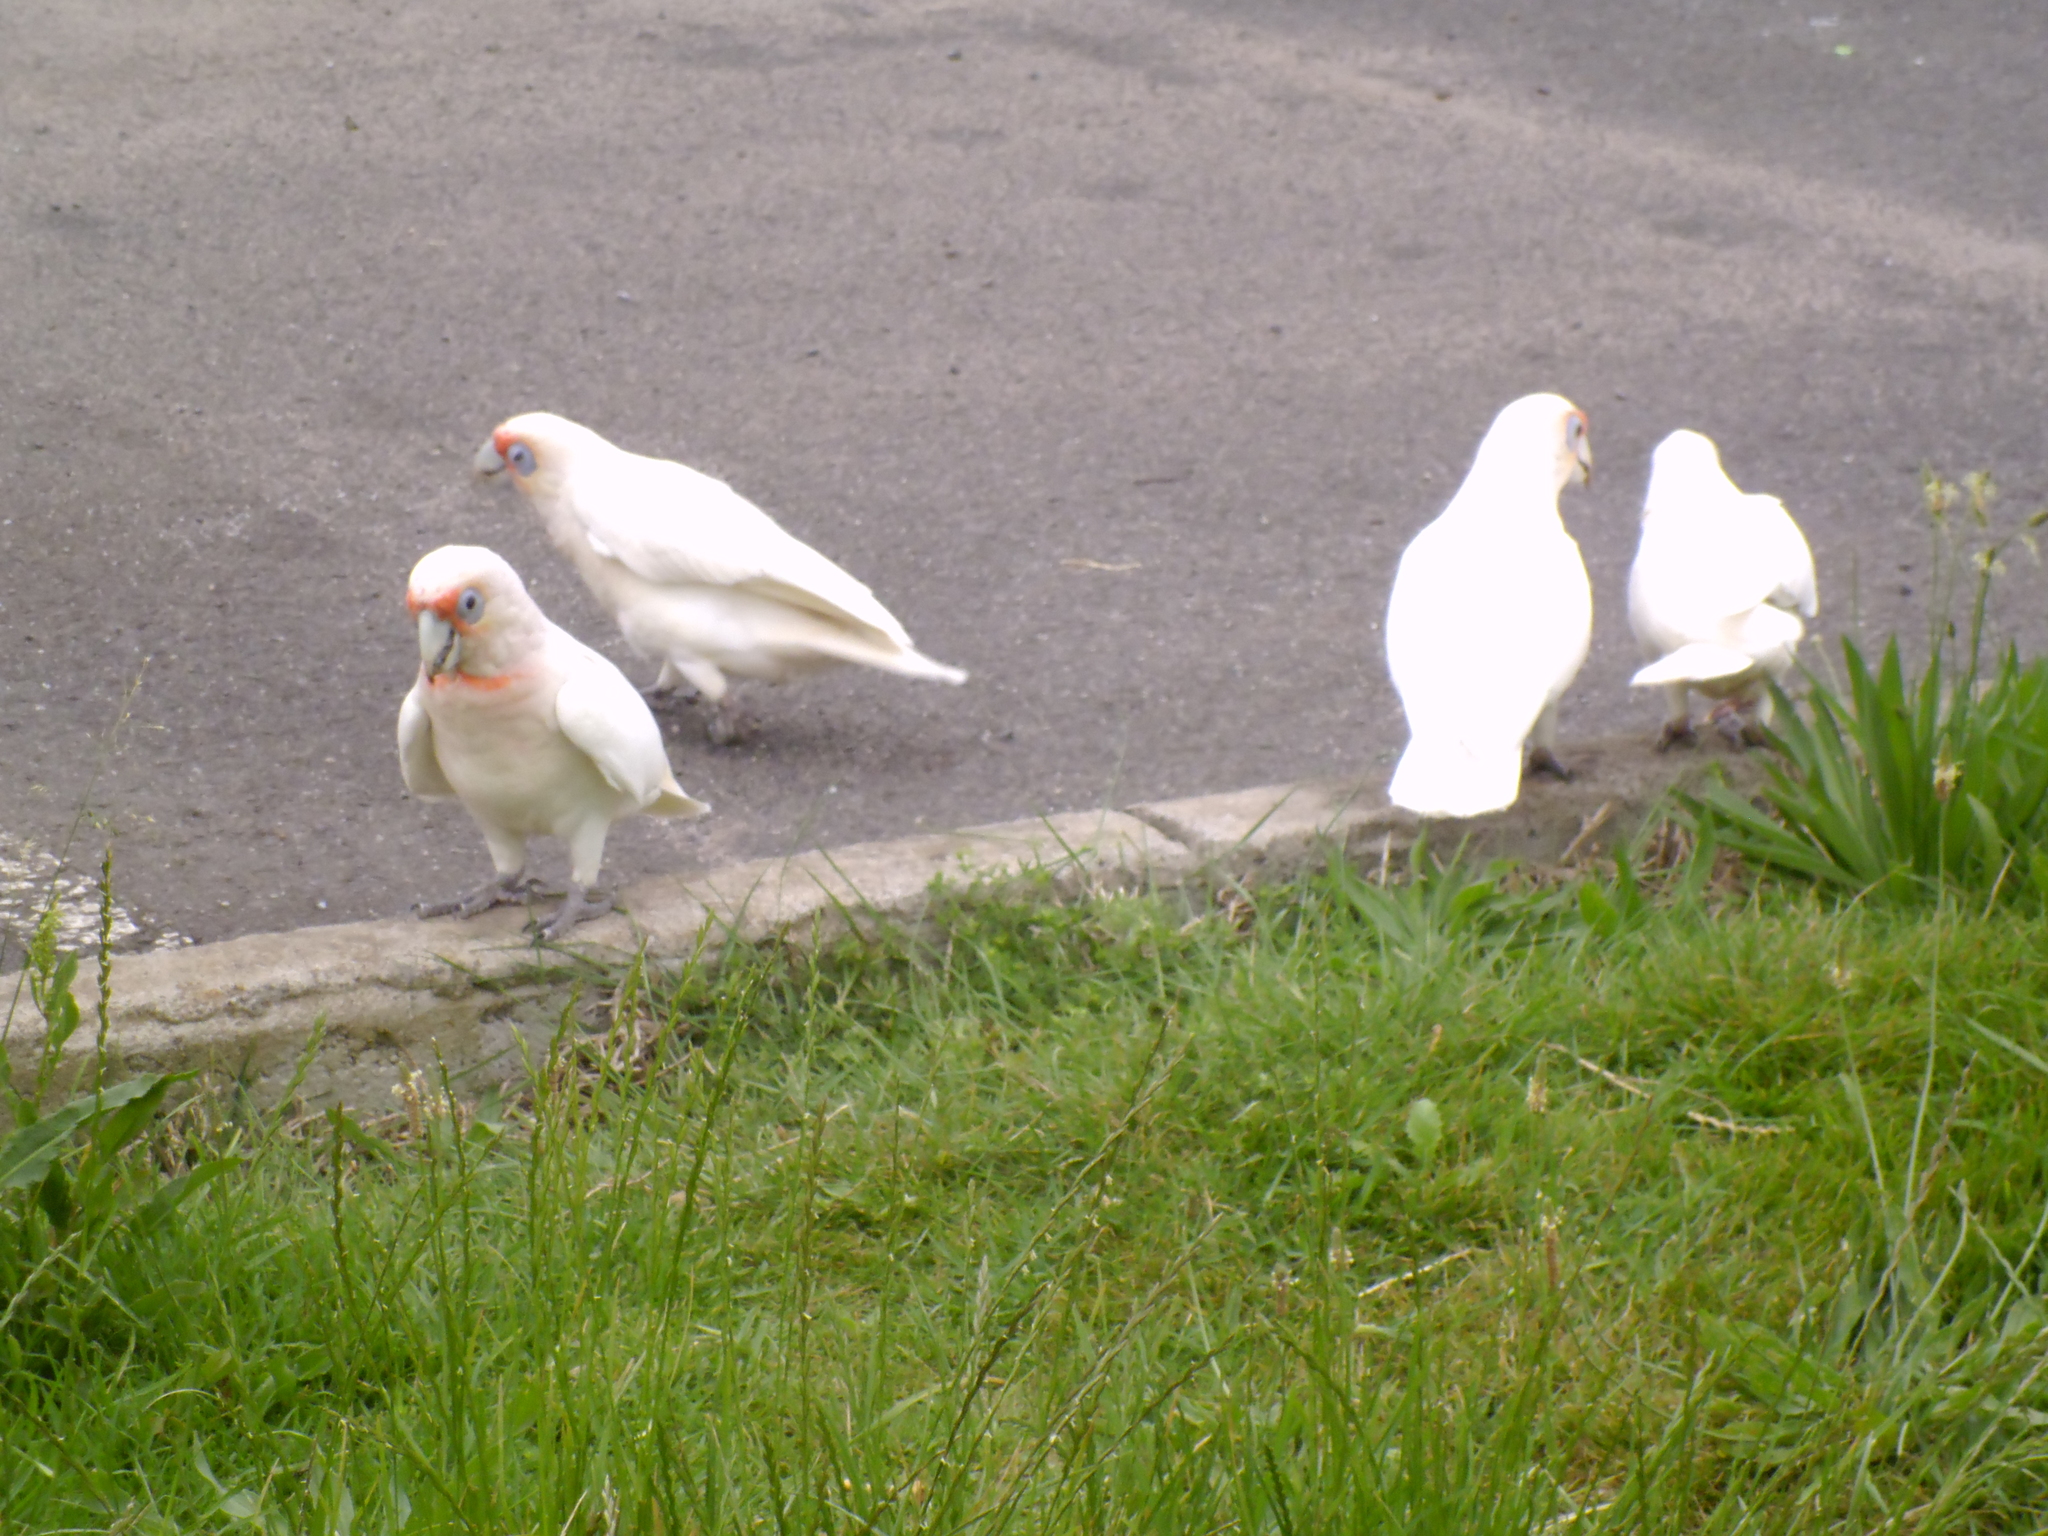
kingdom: Animalia
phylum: Chordata
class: Aves
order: Psittaciformes
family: Psittacidae
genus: Cacatua
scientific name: Cacatua tenuirostris
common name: Long-billed corella
